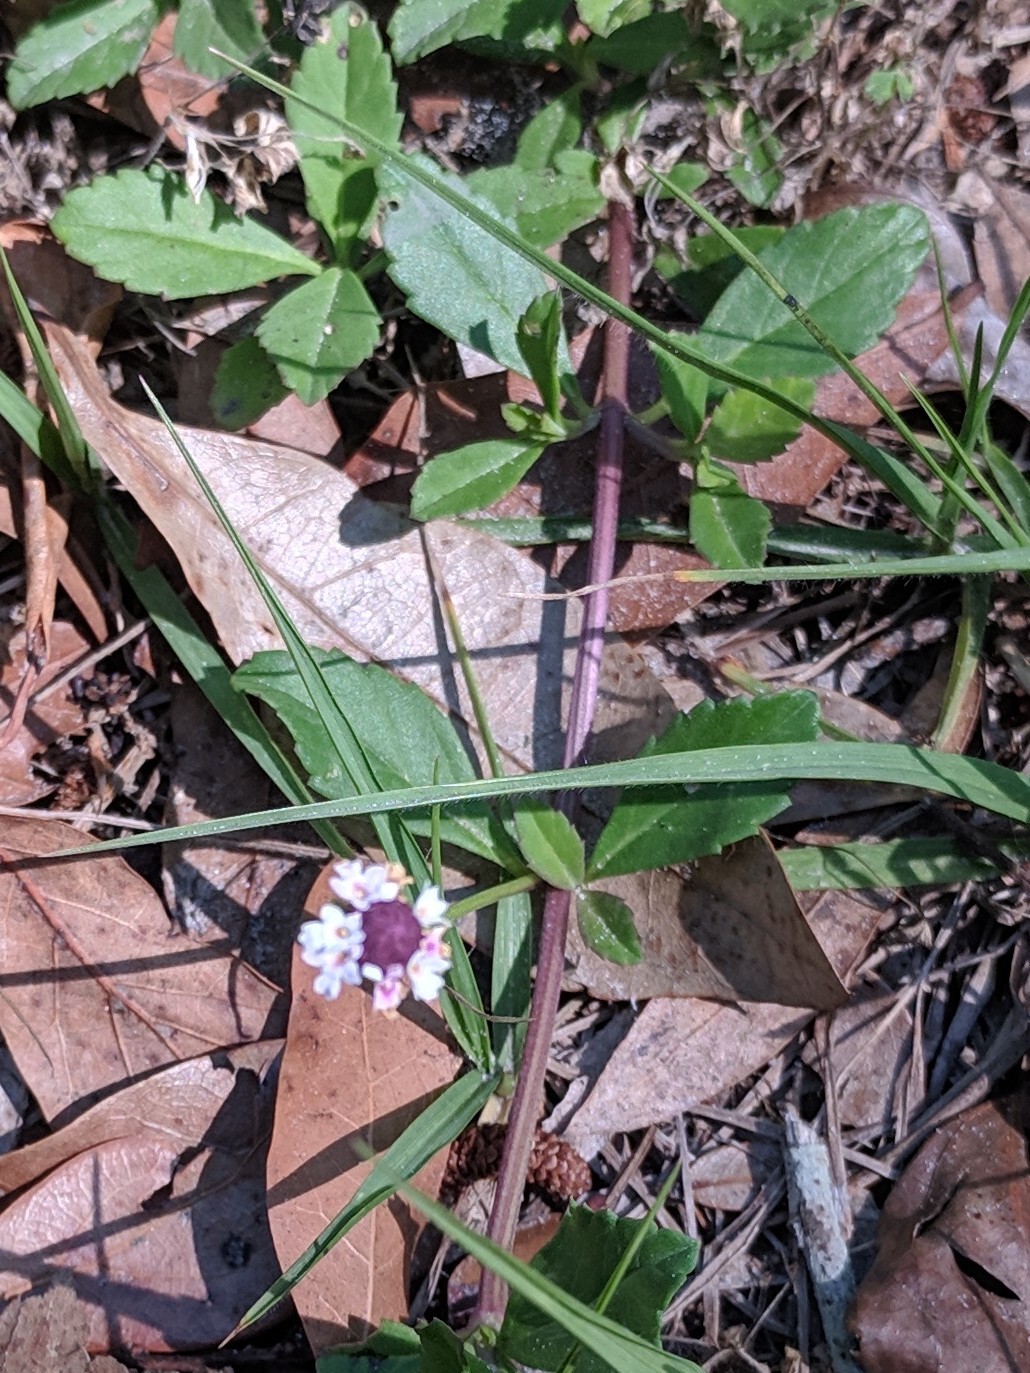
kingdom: Plantae
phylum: Tracheophyta
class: Magnoliopsida
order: Lamiales
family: Verbenaceae
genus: Phyla
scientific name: Phyla nodiflora
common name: Frogfruit
